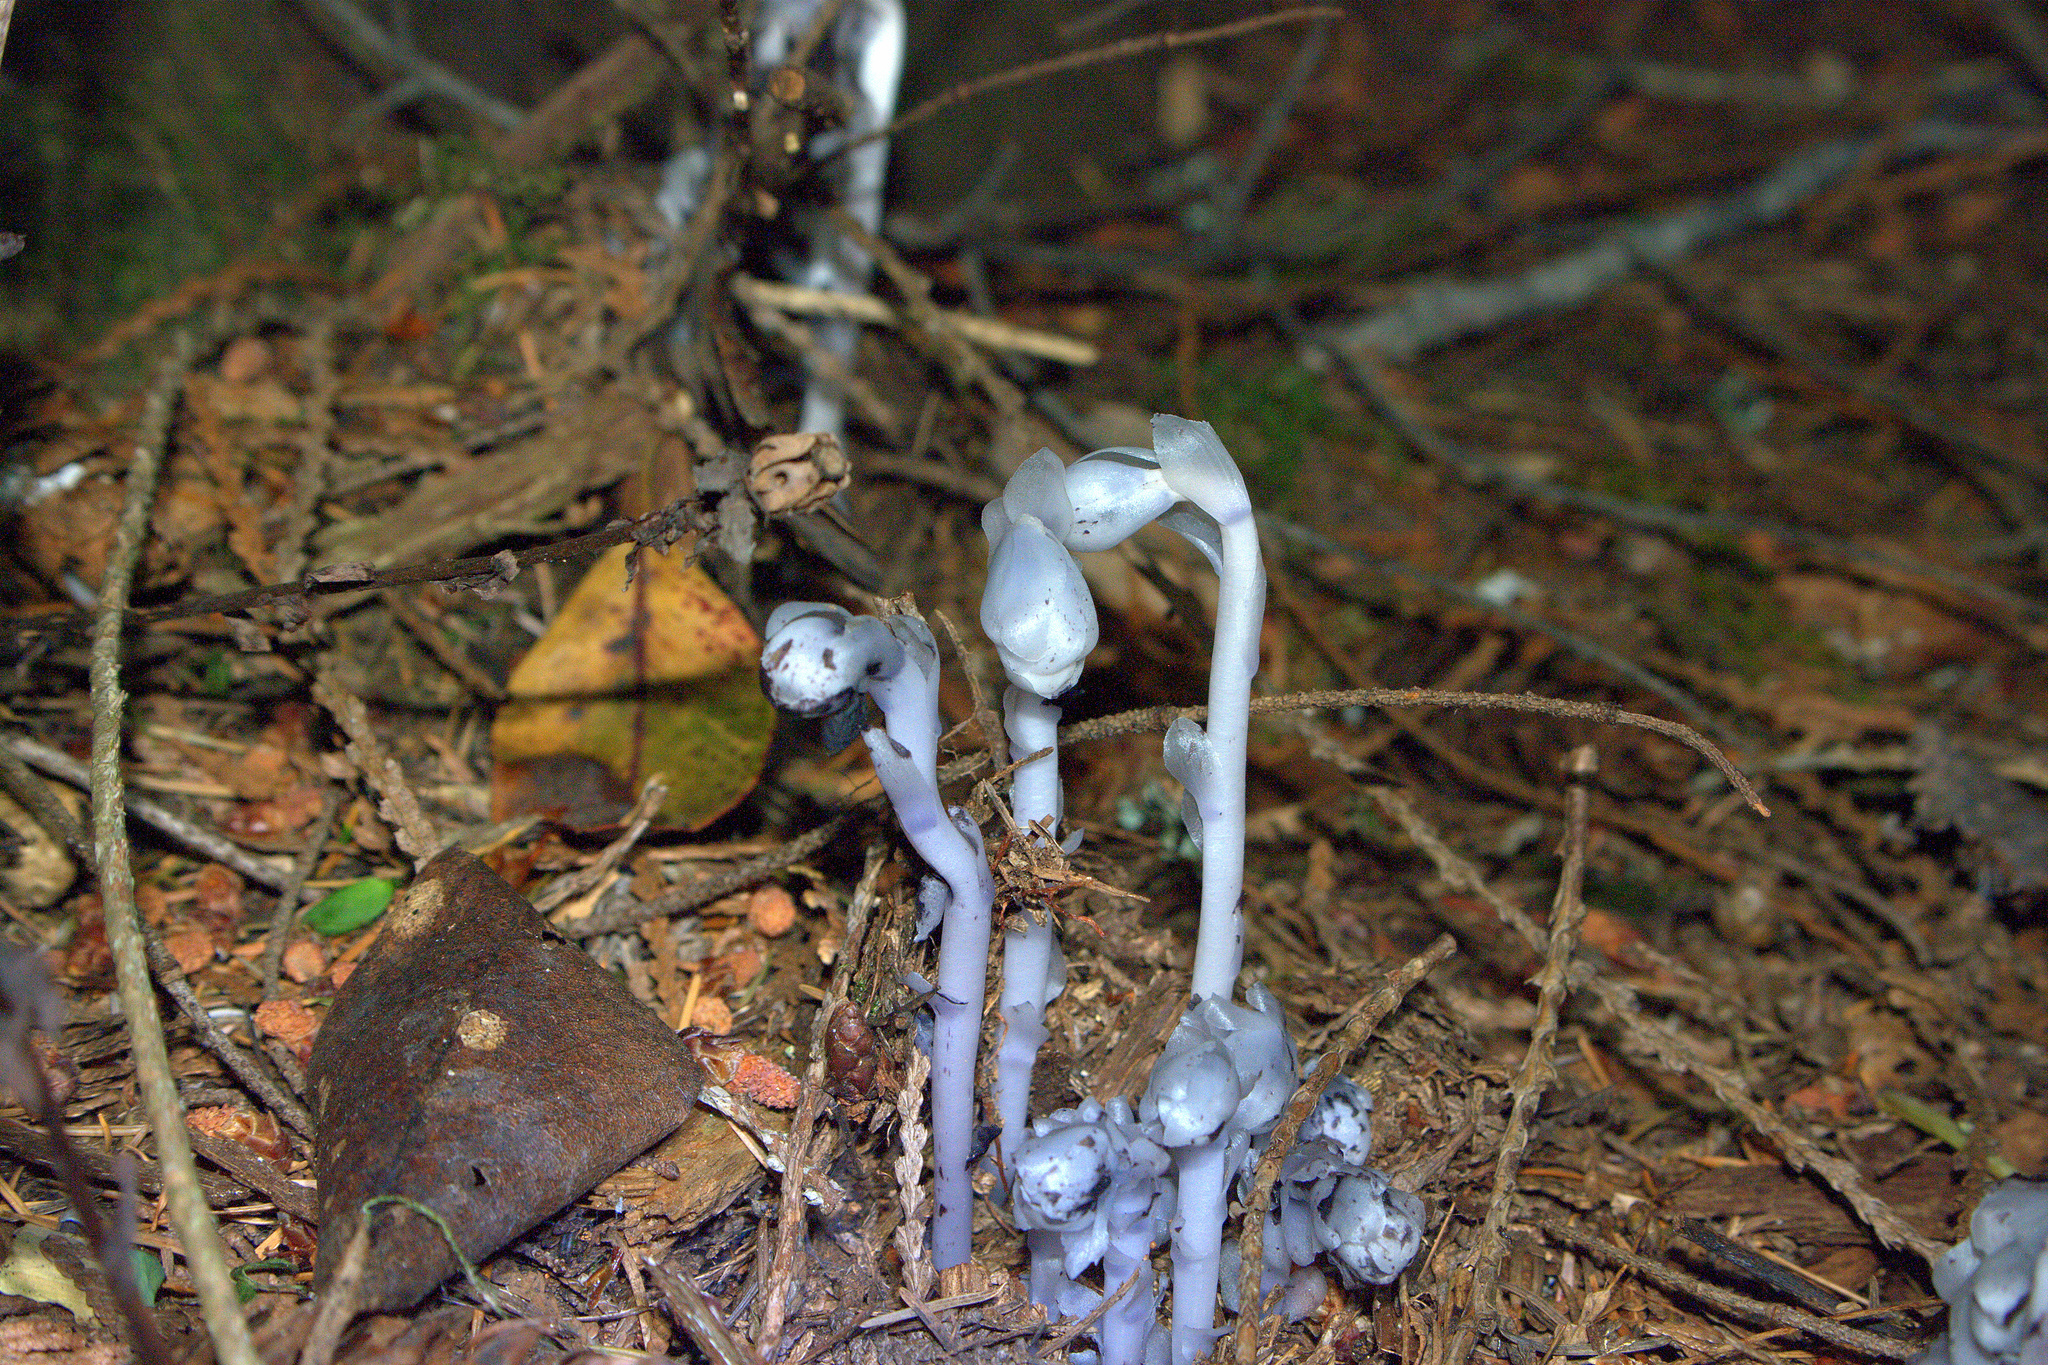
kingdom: Plantae
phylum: Tracheophyta
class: Magnoliopsida
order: Ericales
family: Ericaceae
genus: Monotropa
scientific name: Monotropa uniflora
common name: Convulsion root
